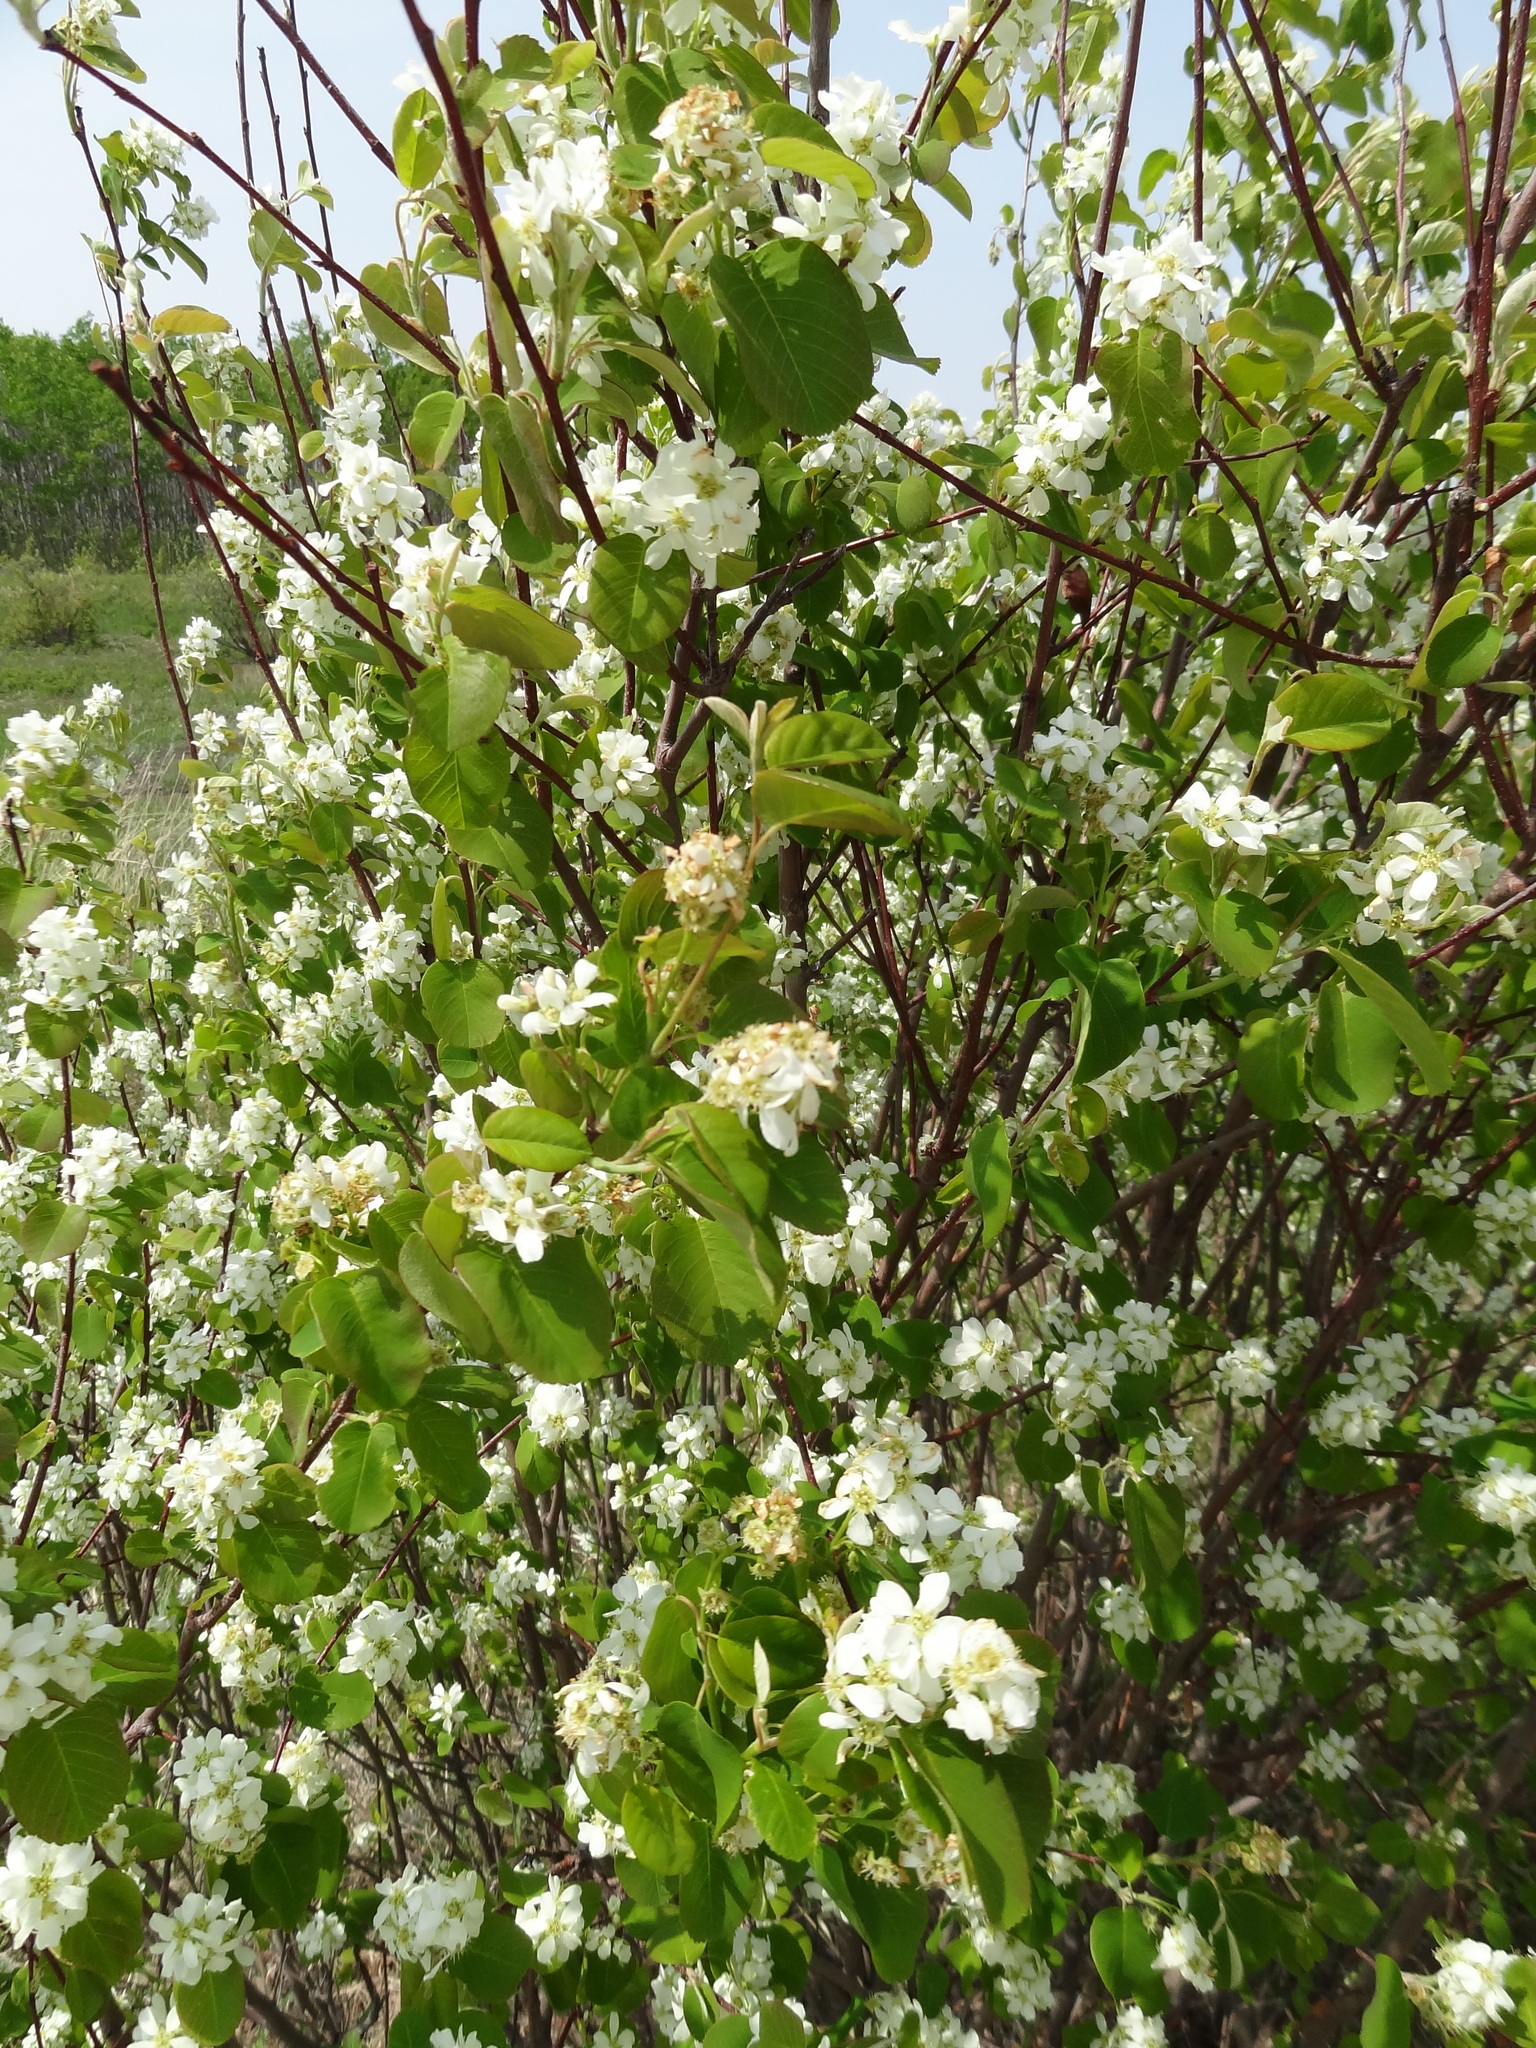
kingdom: Plantae
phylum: Tracheophyta
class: Magnoliopsida
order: Rosales
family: Rosaceae
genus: Amelanchier
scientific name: Amelanchier alnifolia
